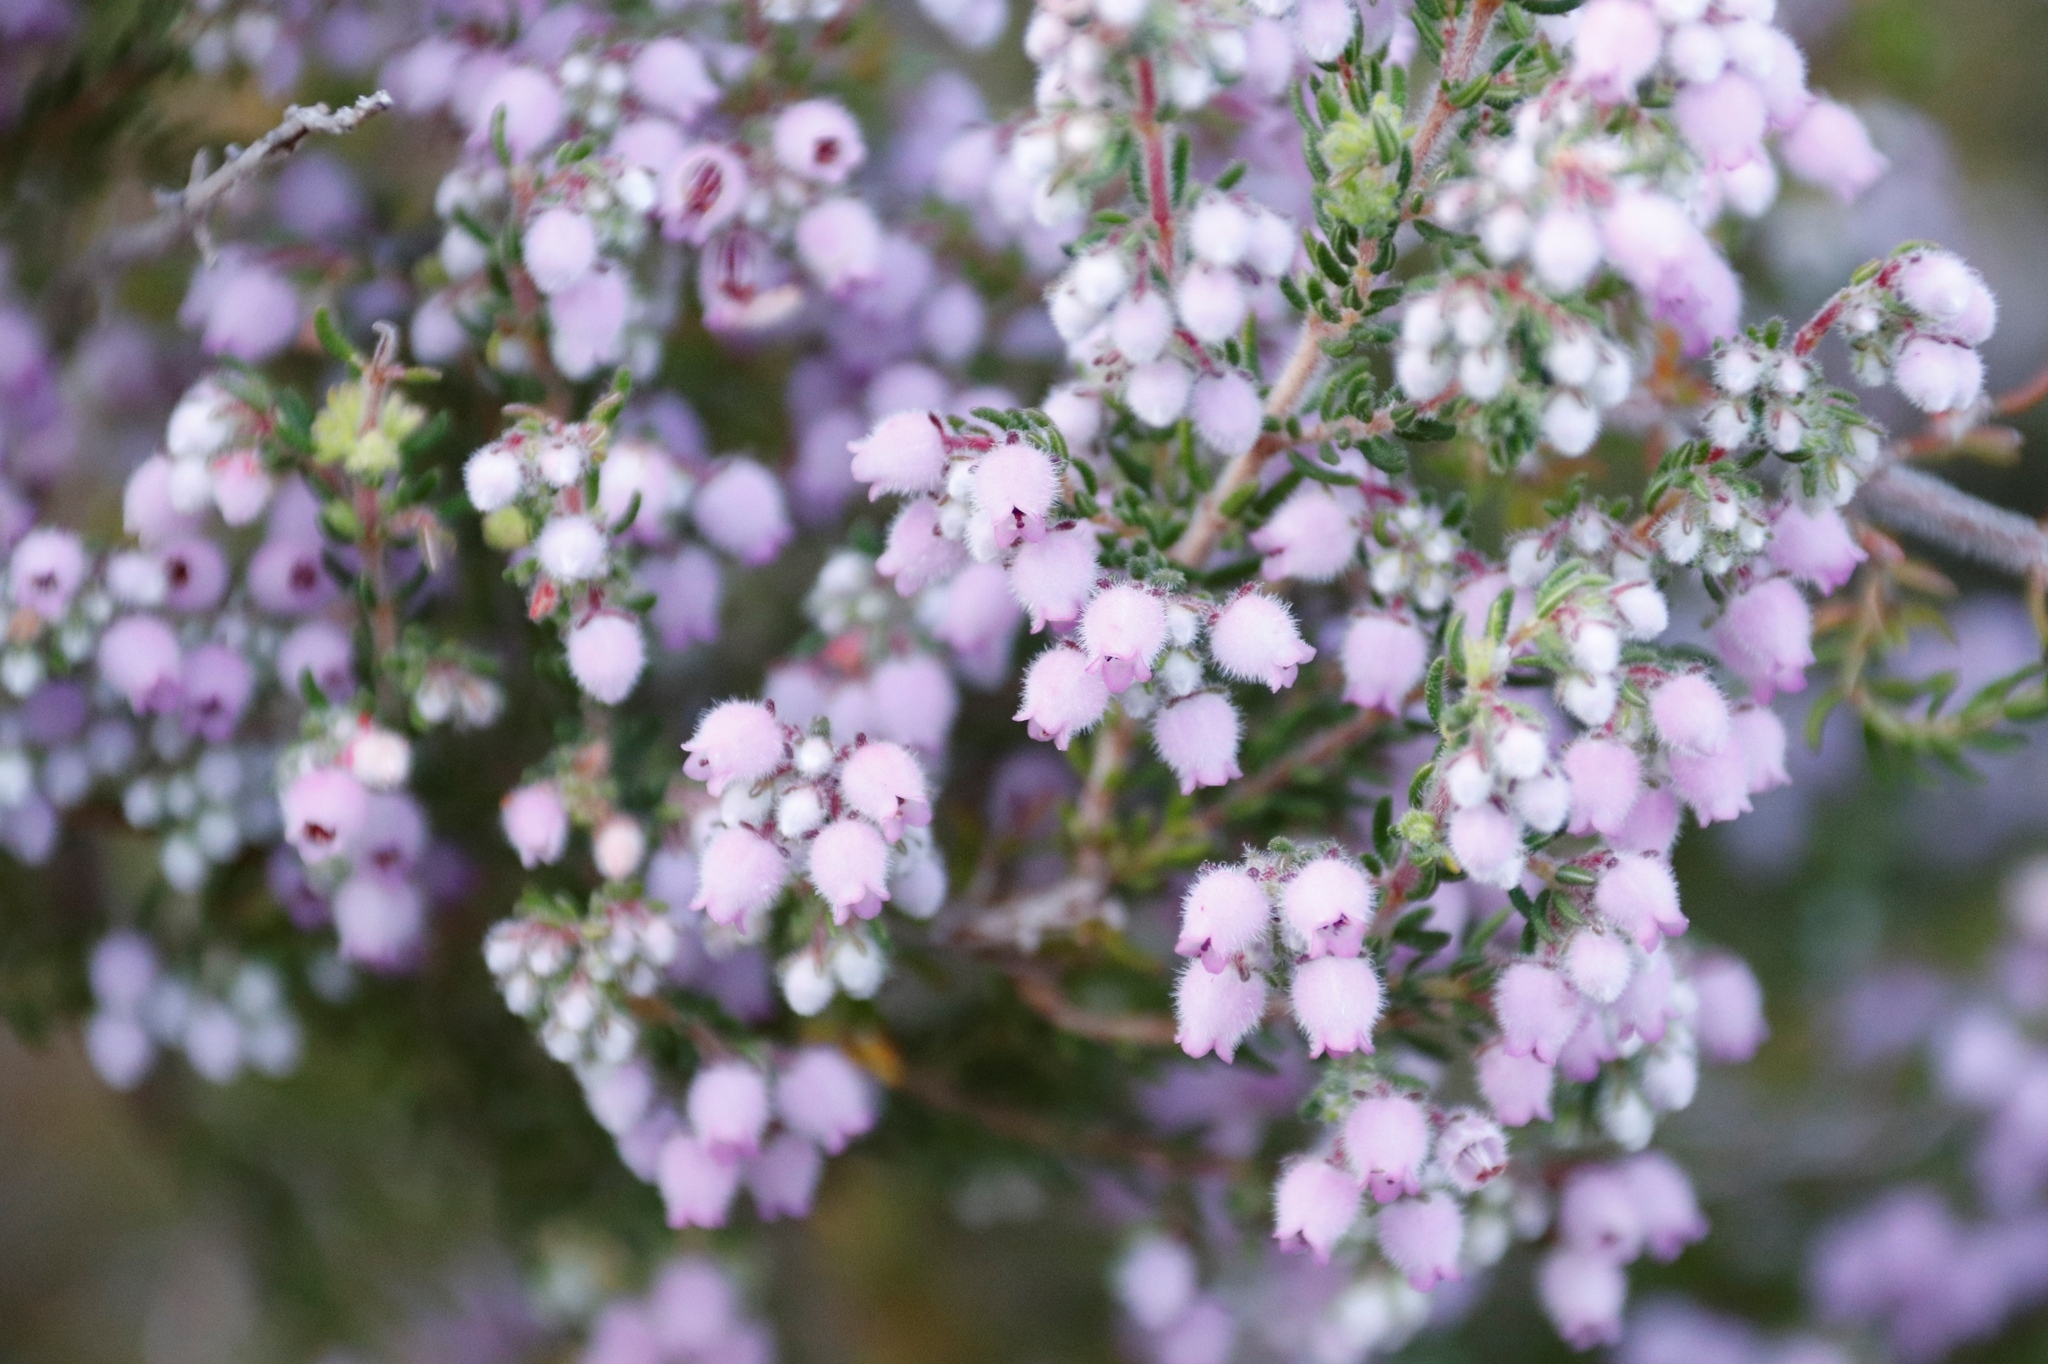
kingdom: Plantae
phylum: Tracheophyta
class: Magnoliopsida
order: Ericales
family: Ericaceae
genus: Erica
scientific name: Erica hirtiflora
